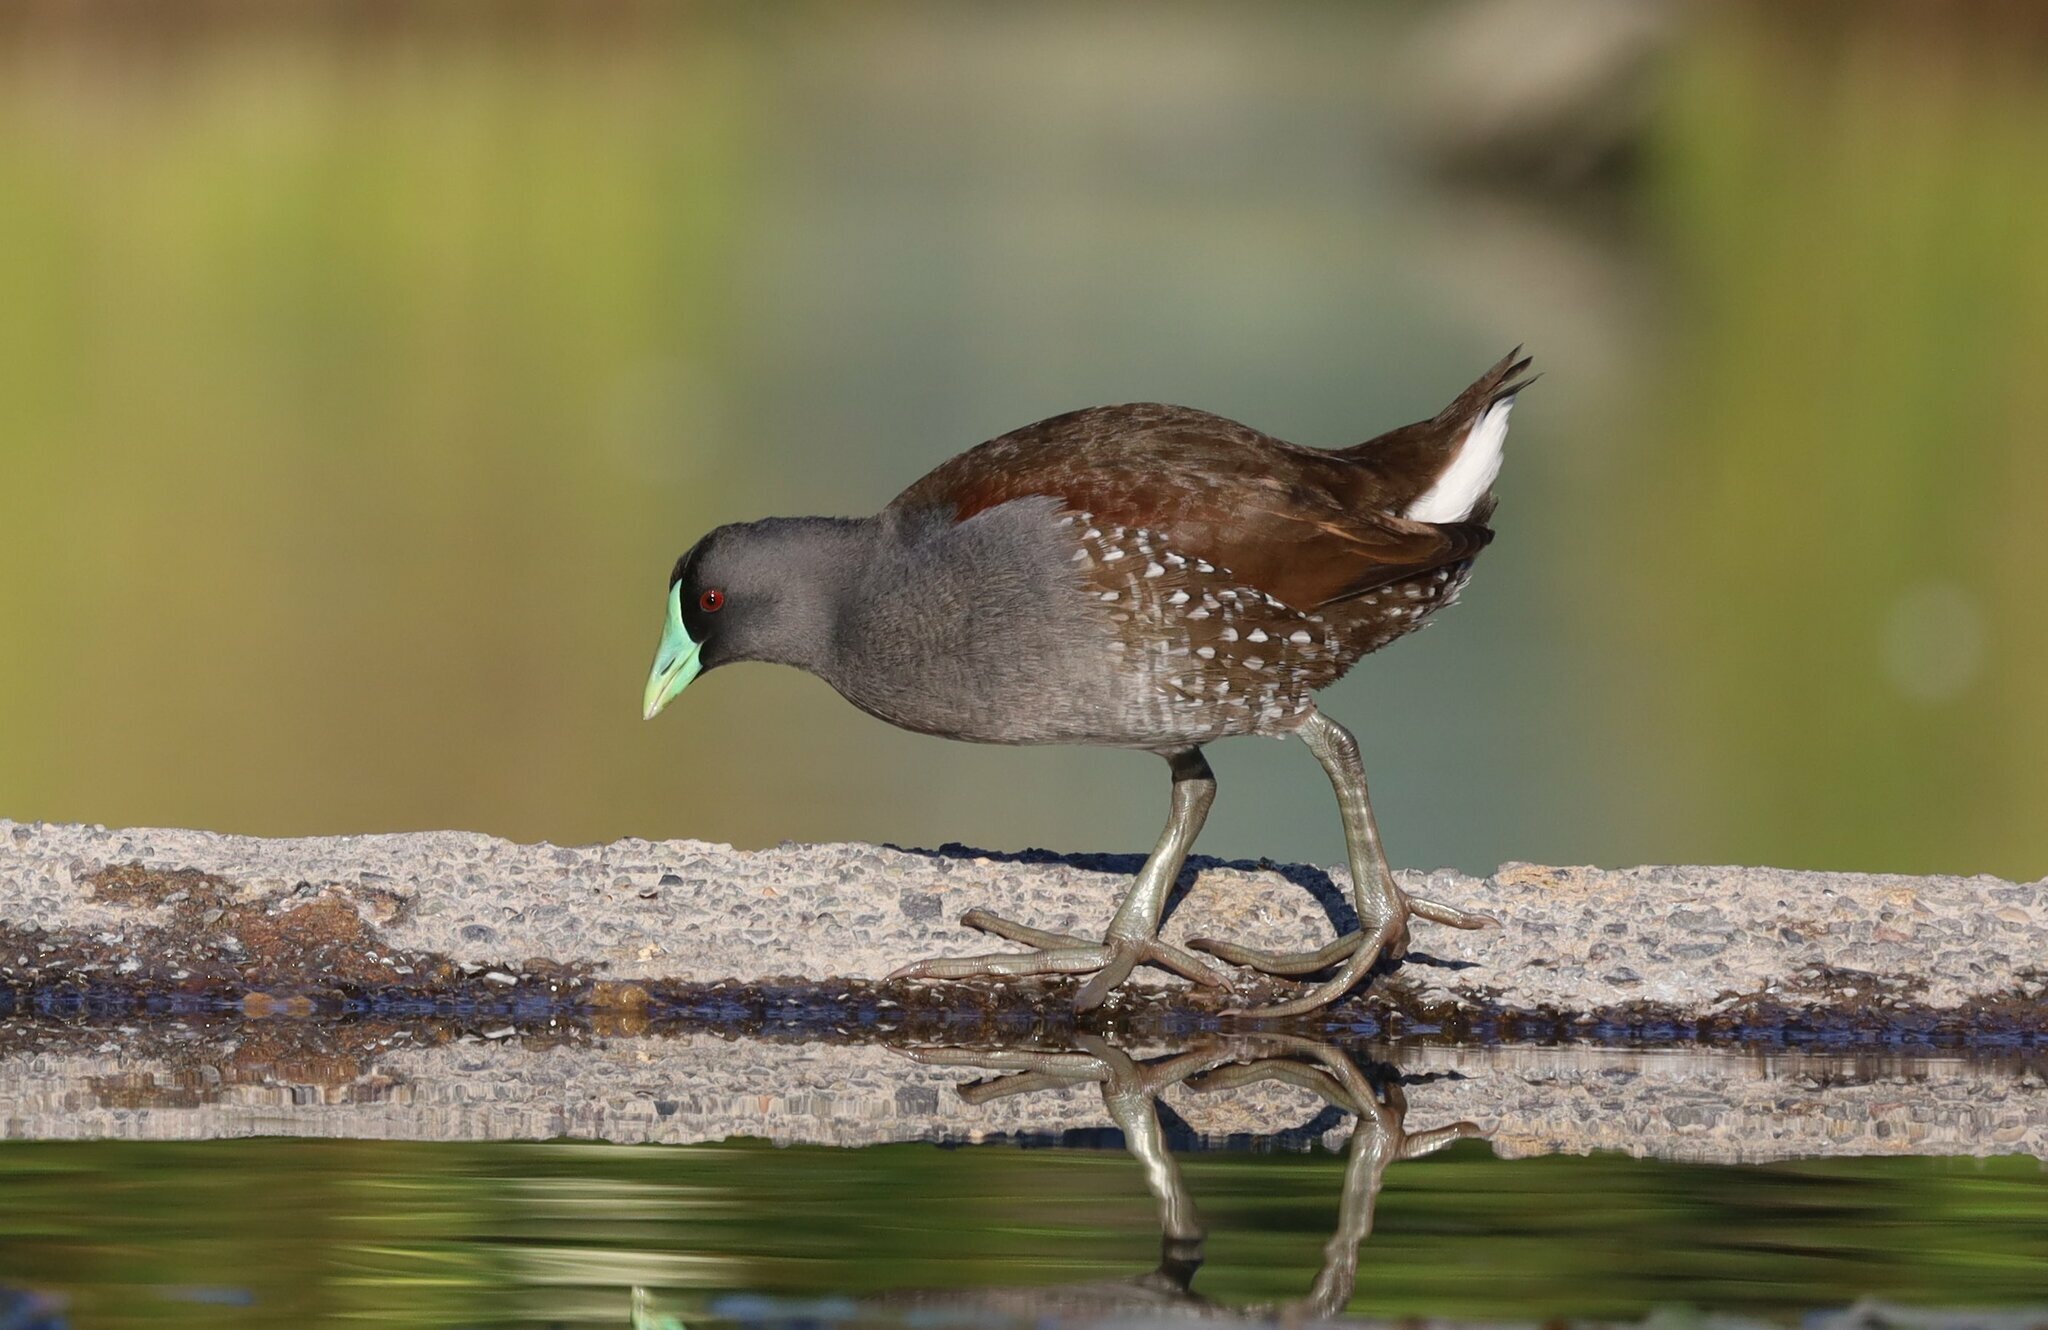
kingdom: Animalia
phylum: Chordata
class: Aves
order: Gruiformes
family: Rallidae
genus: Gallinula
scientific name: Gallinula melanops
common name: Spot-flanked gallinule
